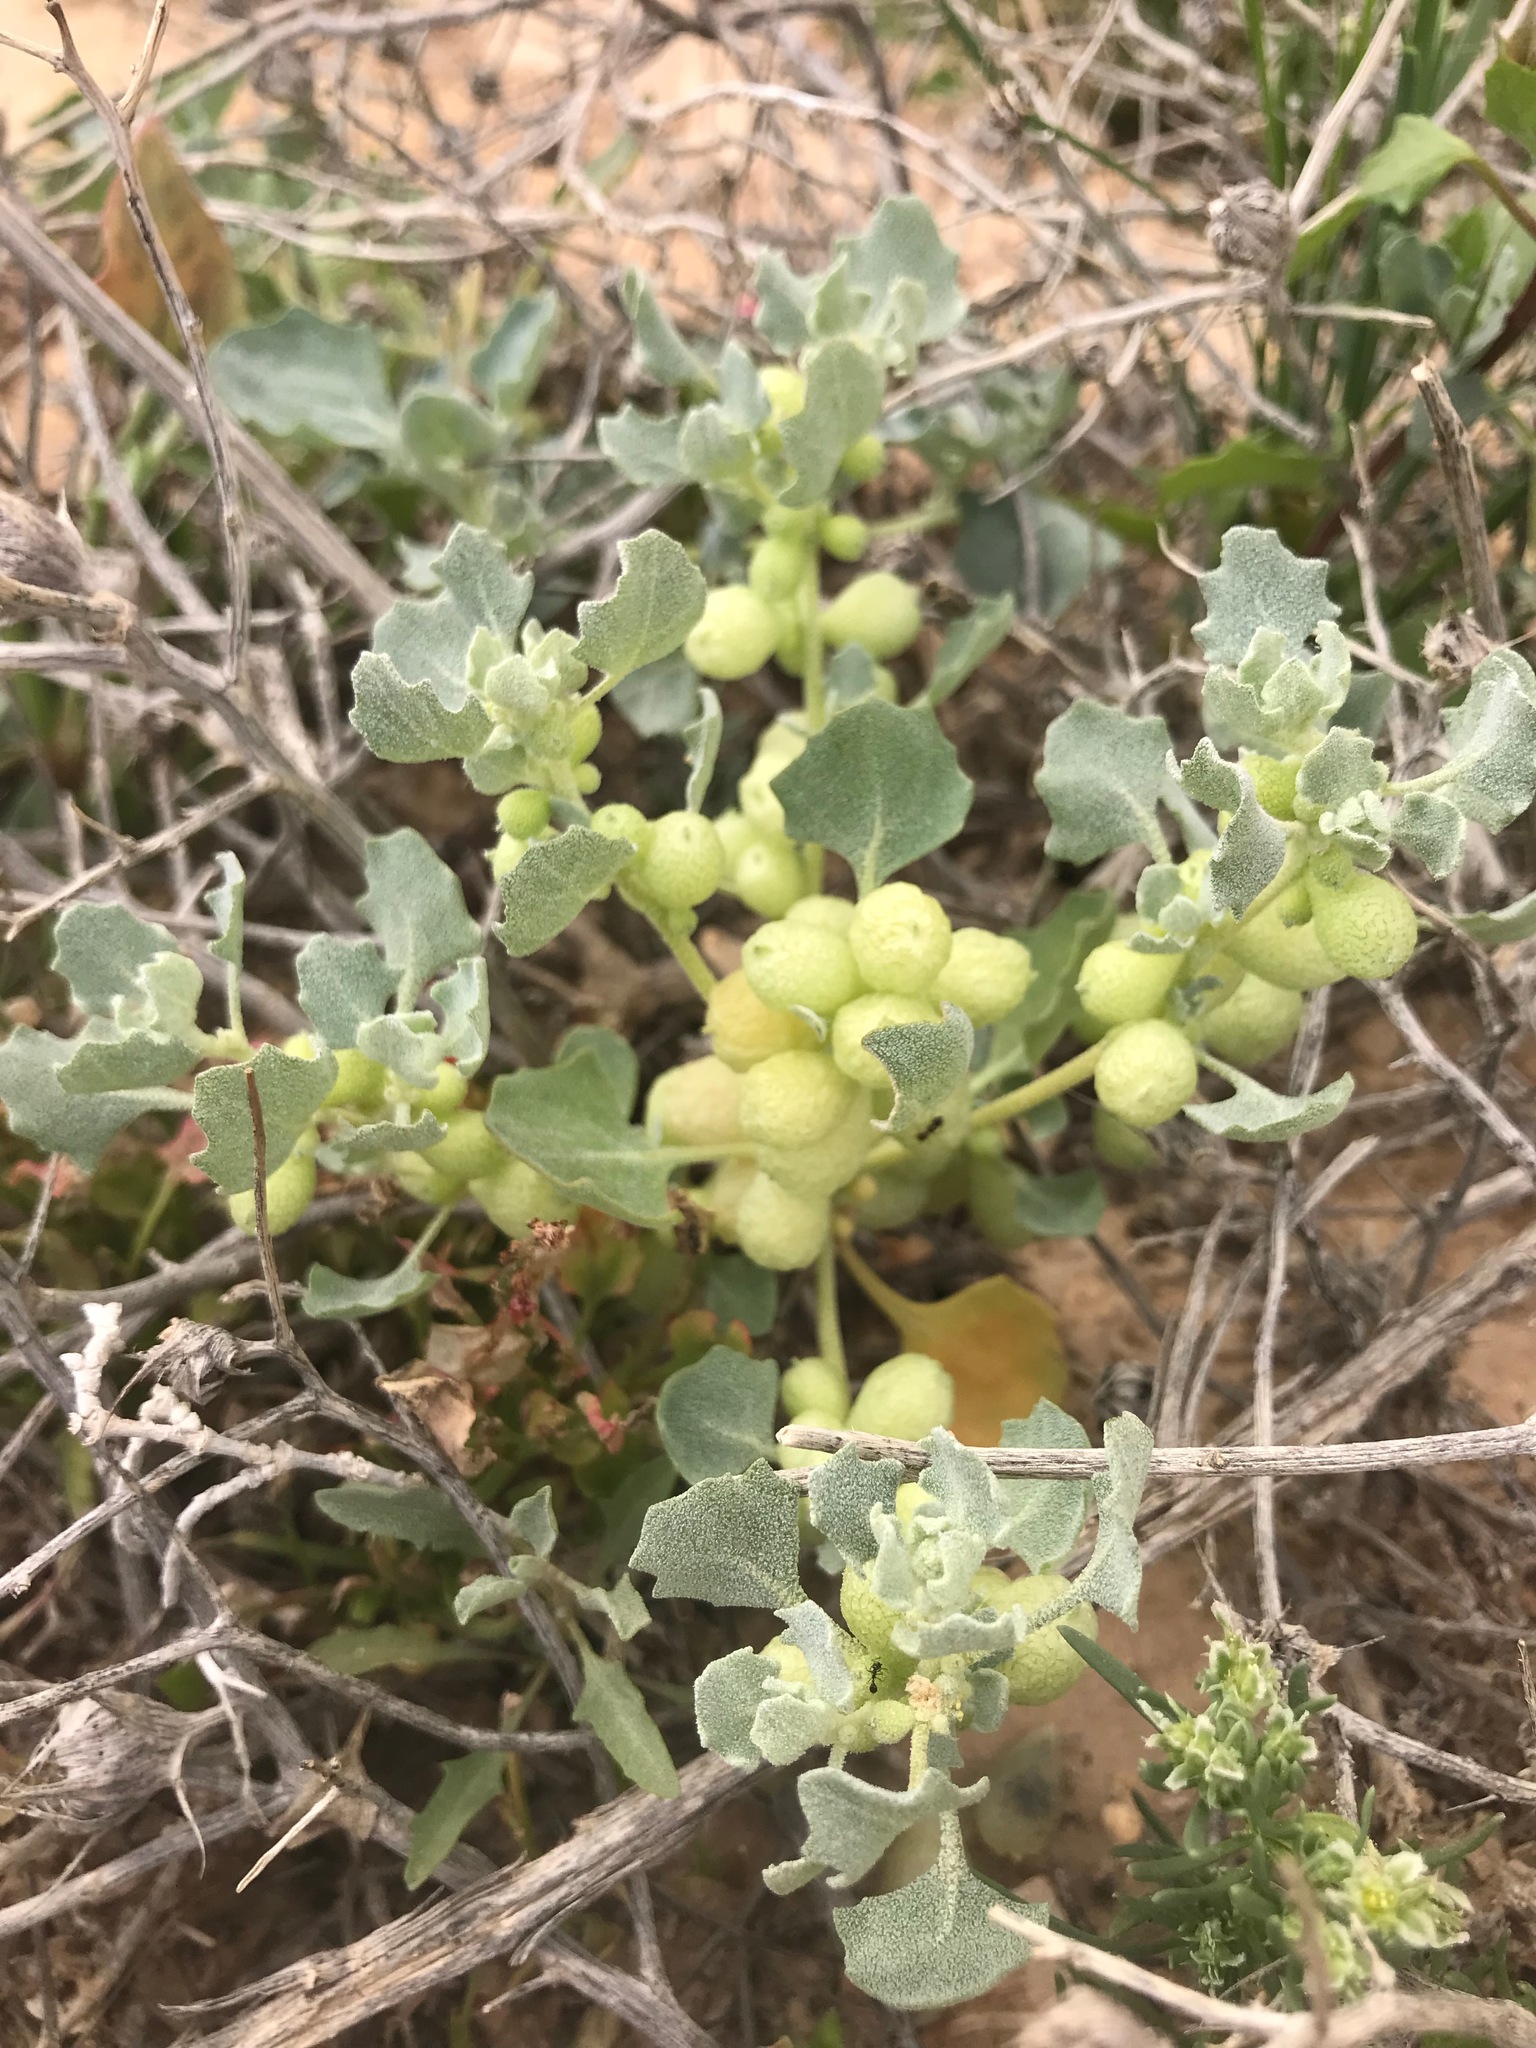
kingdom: Plantae
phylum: Tracheophyta
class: Magnoliopsida
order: Caryophyllales
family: Amaranthaceae
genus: Atriplex
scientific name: Atriplex holocarpa
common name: Pop saltbush
